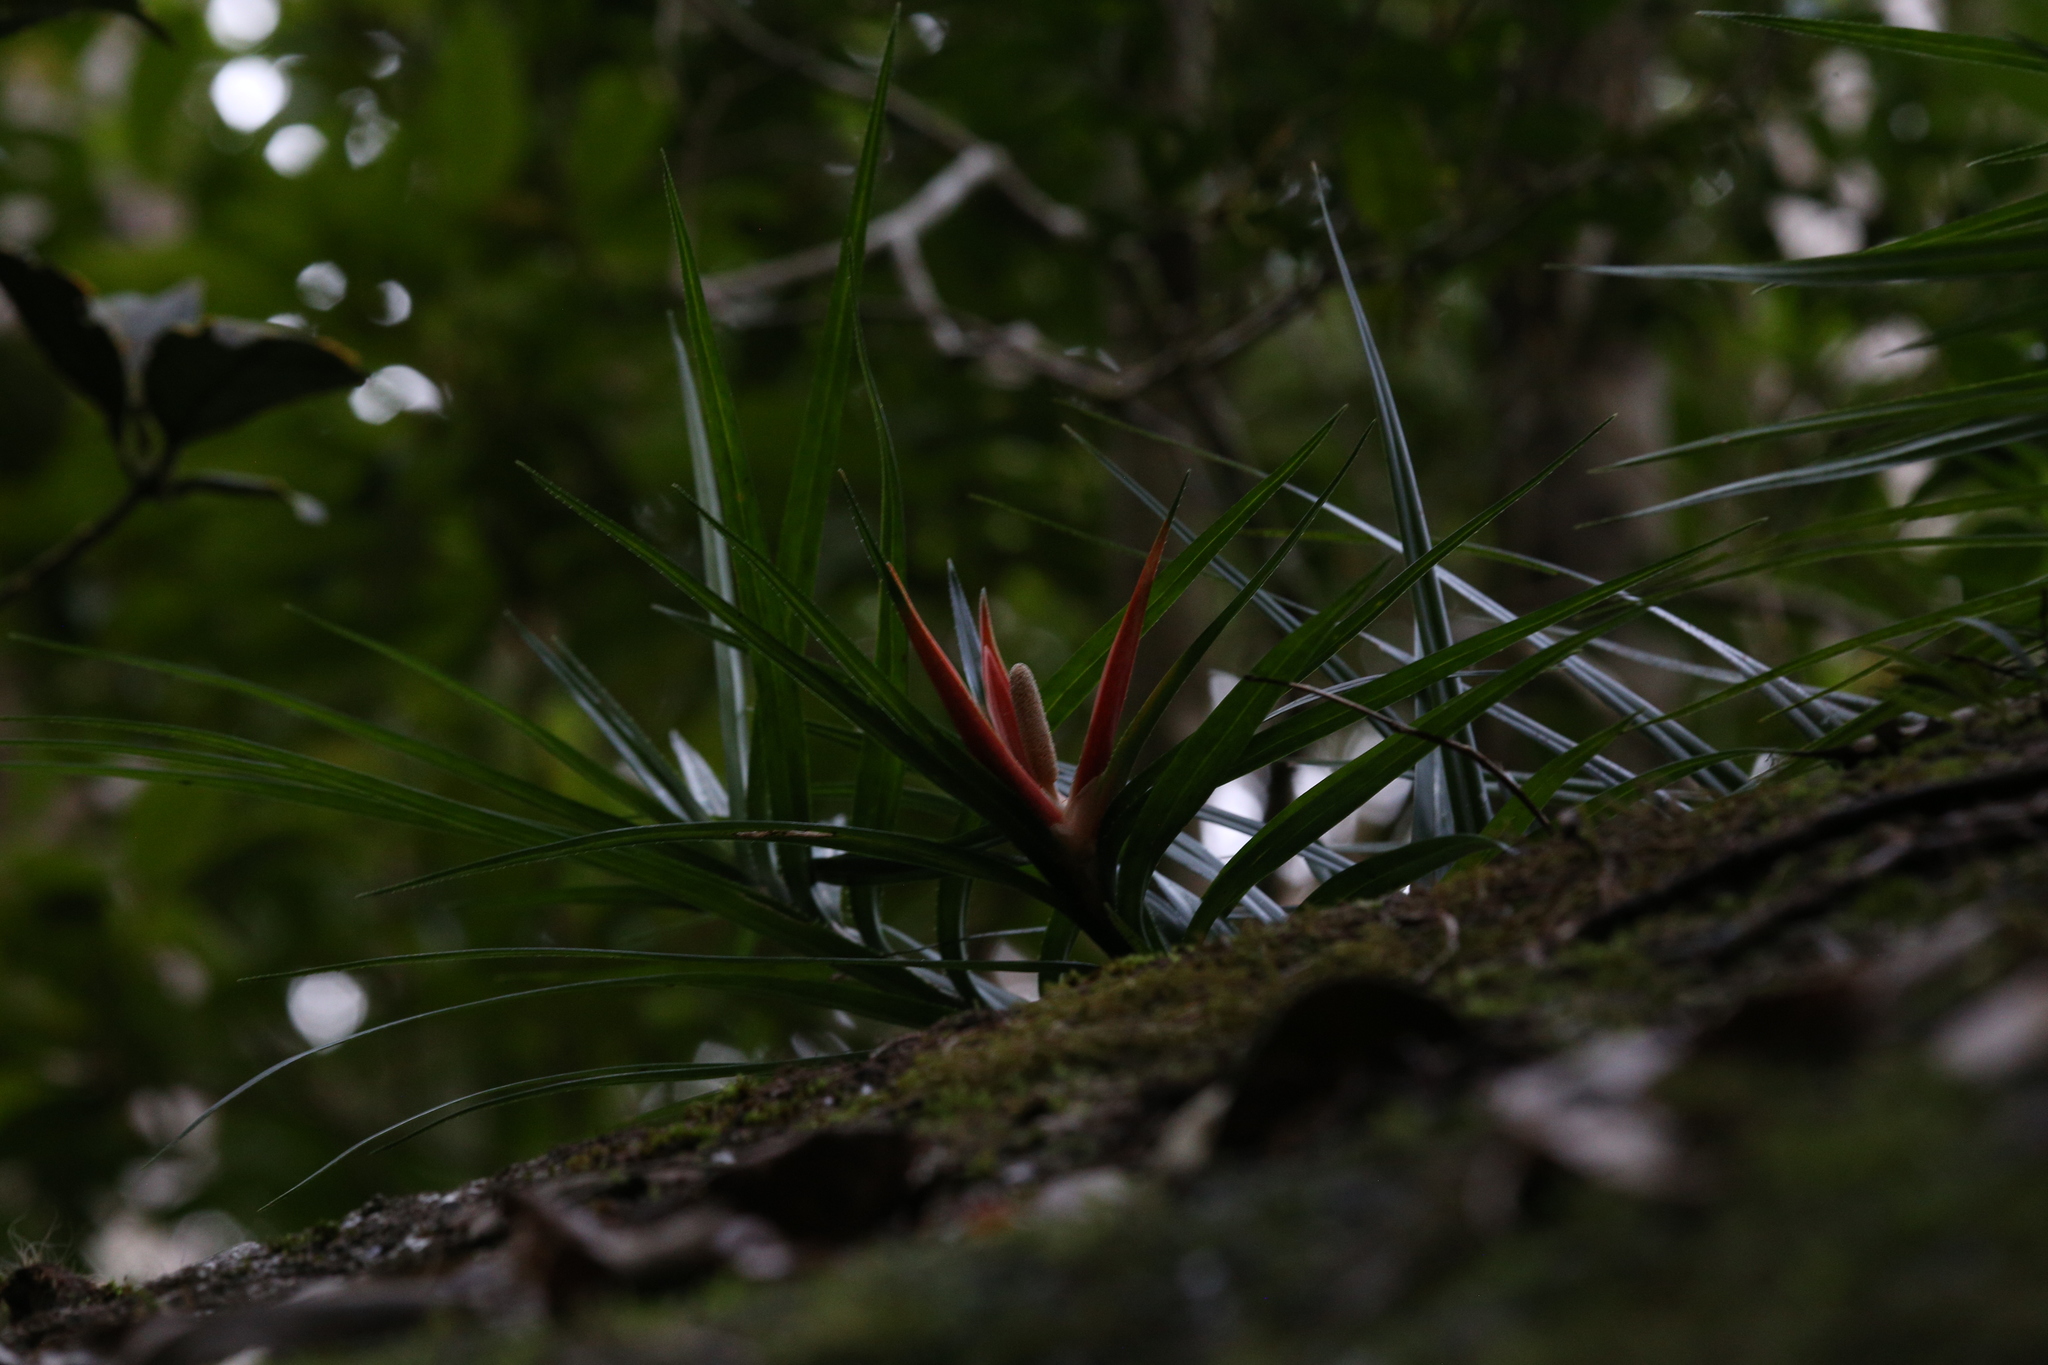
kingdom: Plantae
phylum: Tracheophyta
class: Liliopsida
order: Pandanales
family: Pandanaceae
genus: Freycinetia
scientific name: Freycinetia excelsa
